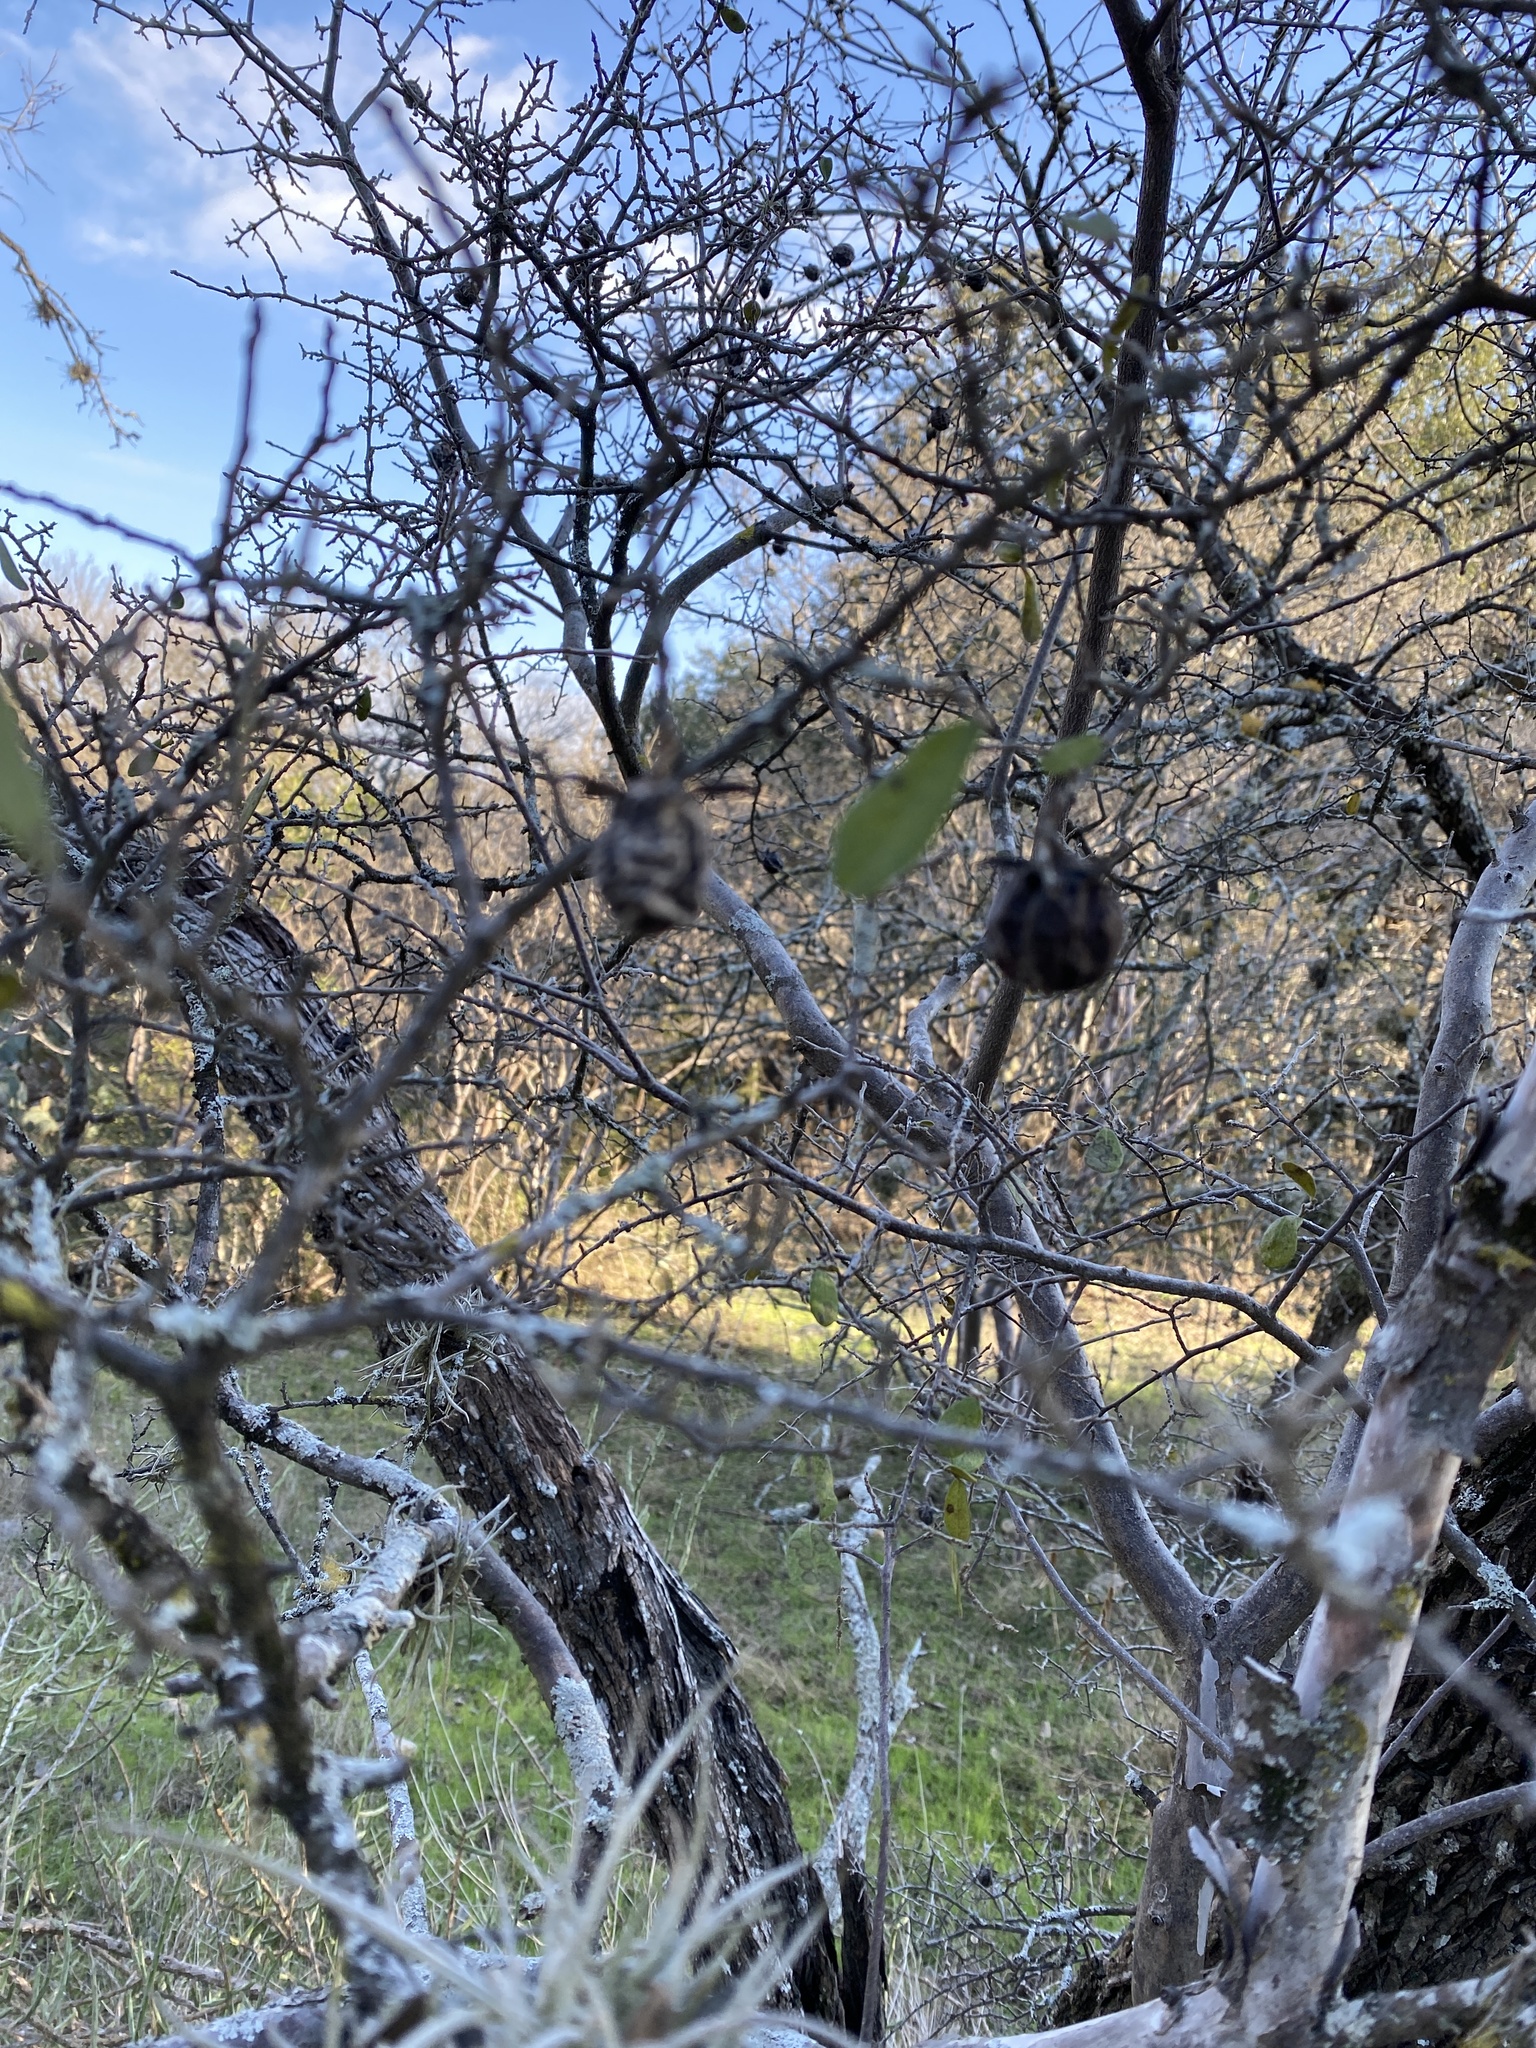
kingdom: Plantae
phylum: Tracheophyta
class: Magnoliopsida
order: Ericales
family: Ebenaceae
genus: Diospyros
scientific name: Diospyros texana
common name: Texas persimmon
